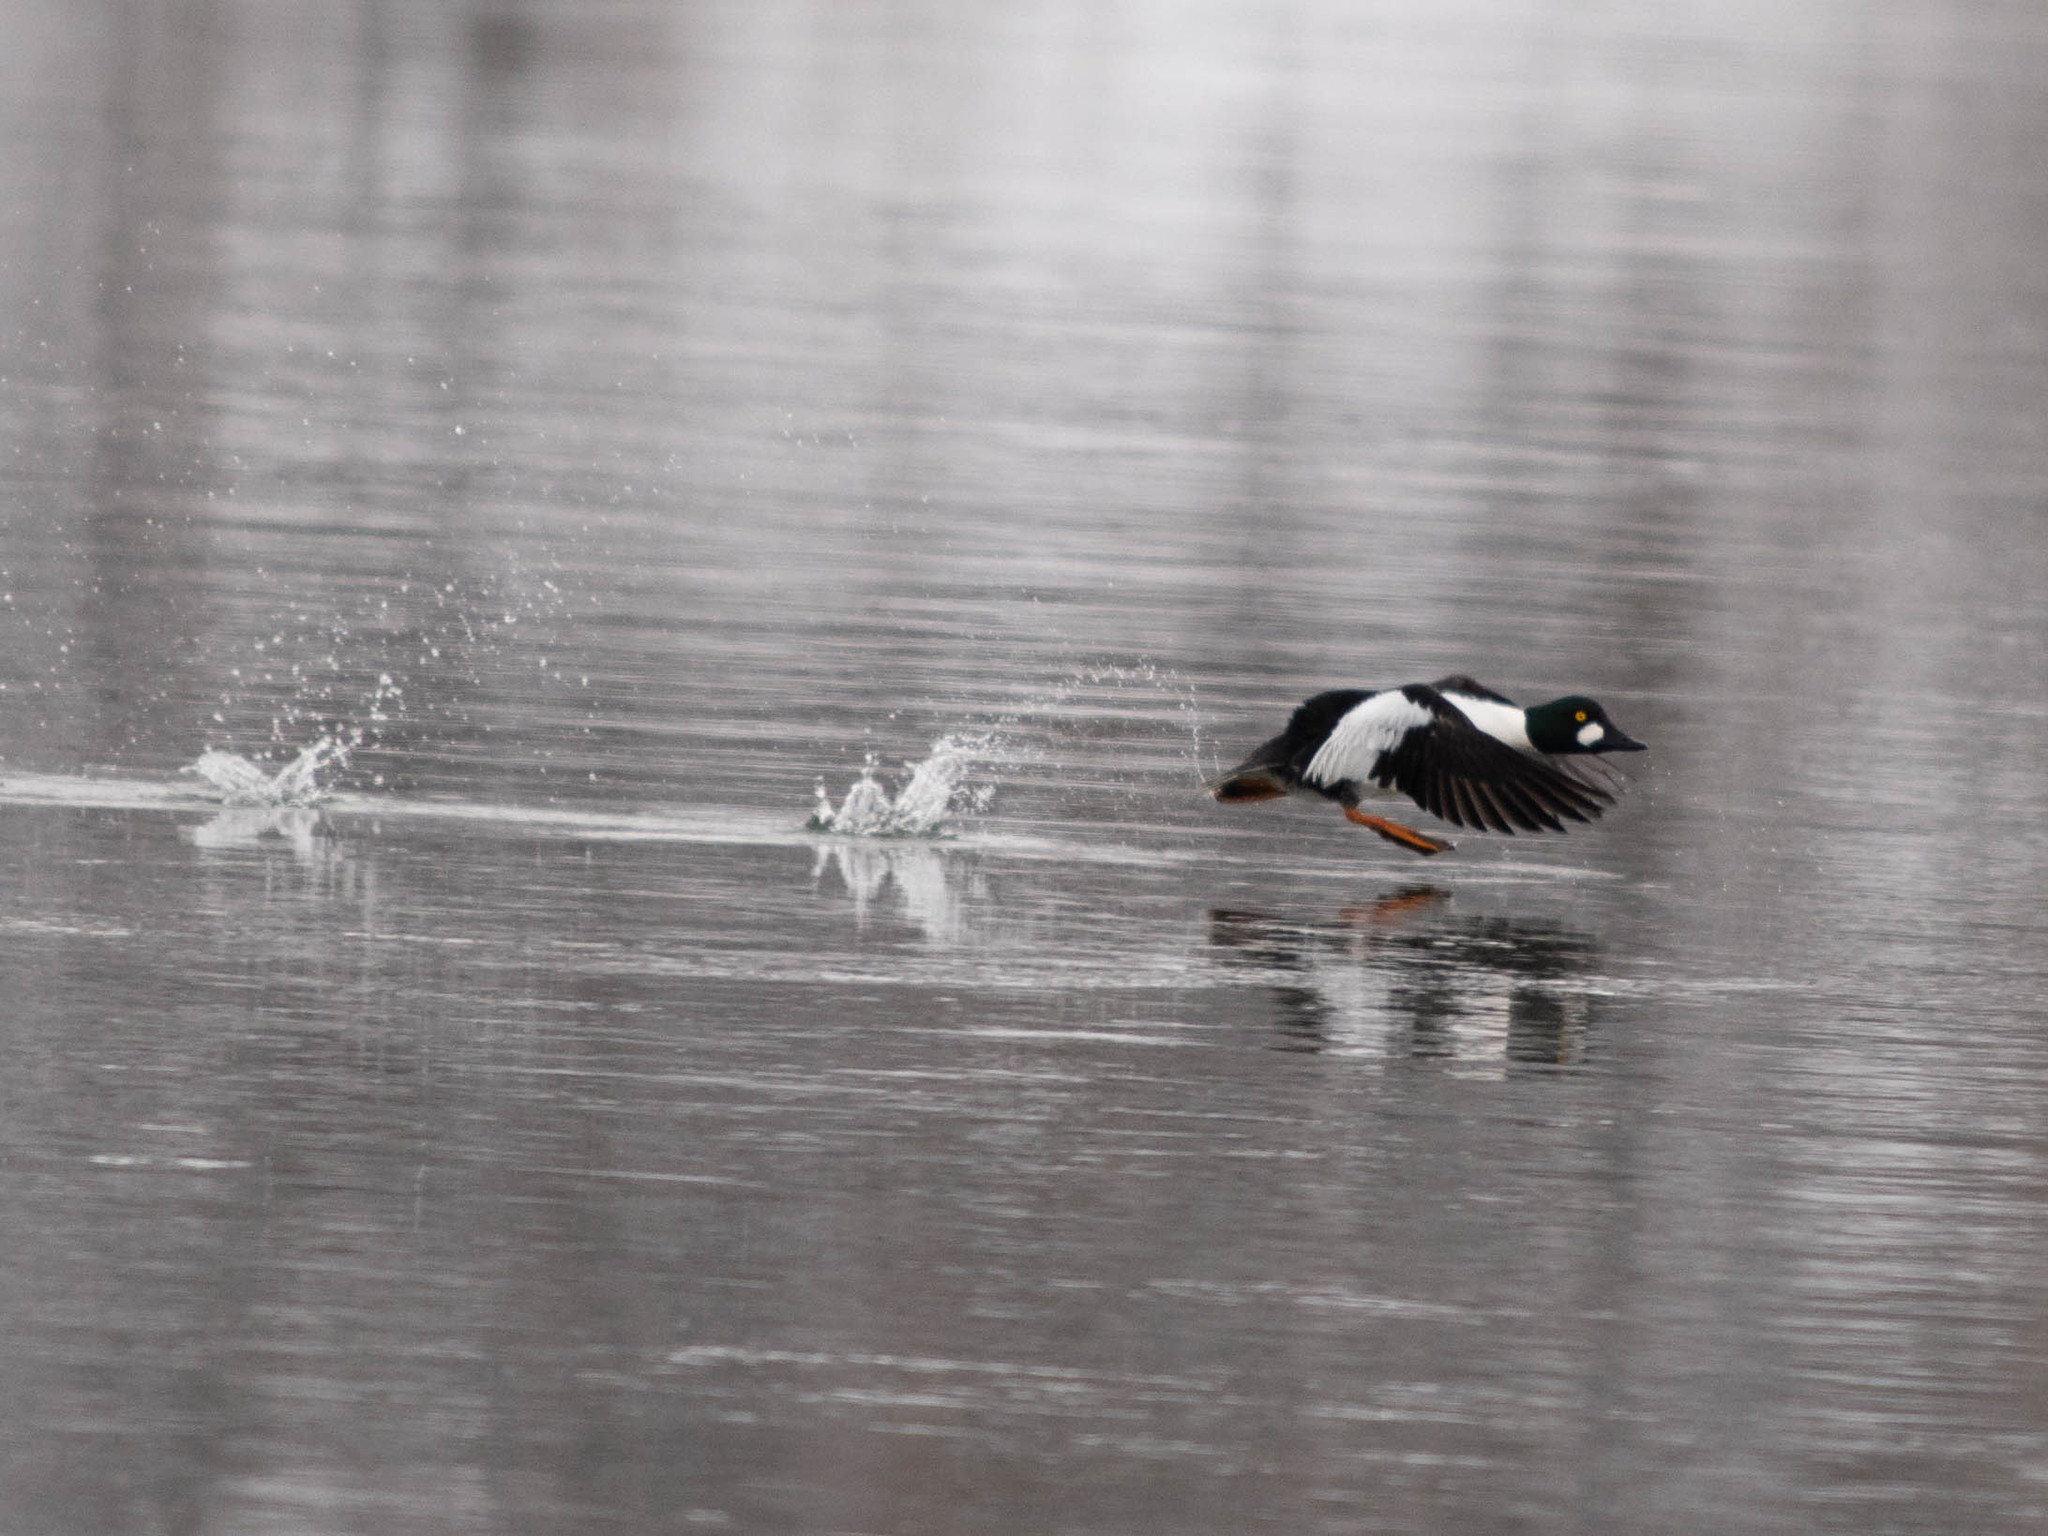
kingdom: Animalia
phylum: Chordata
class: Aves
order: Anseriformes
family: Anatidae
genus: Bucephala
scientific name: Bucephala clangula
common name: Common goldeneye
